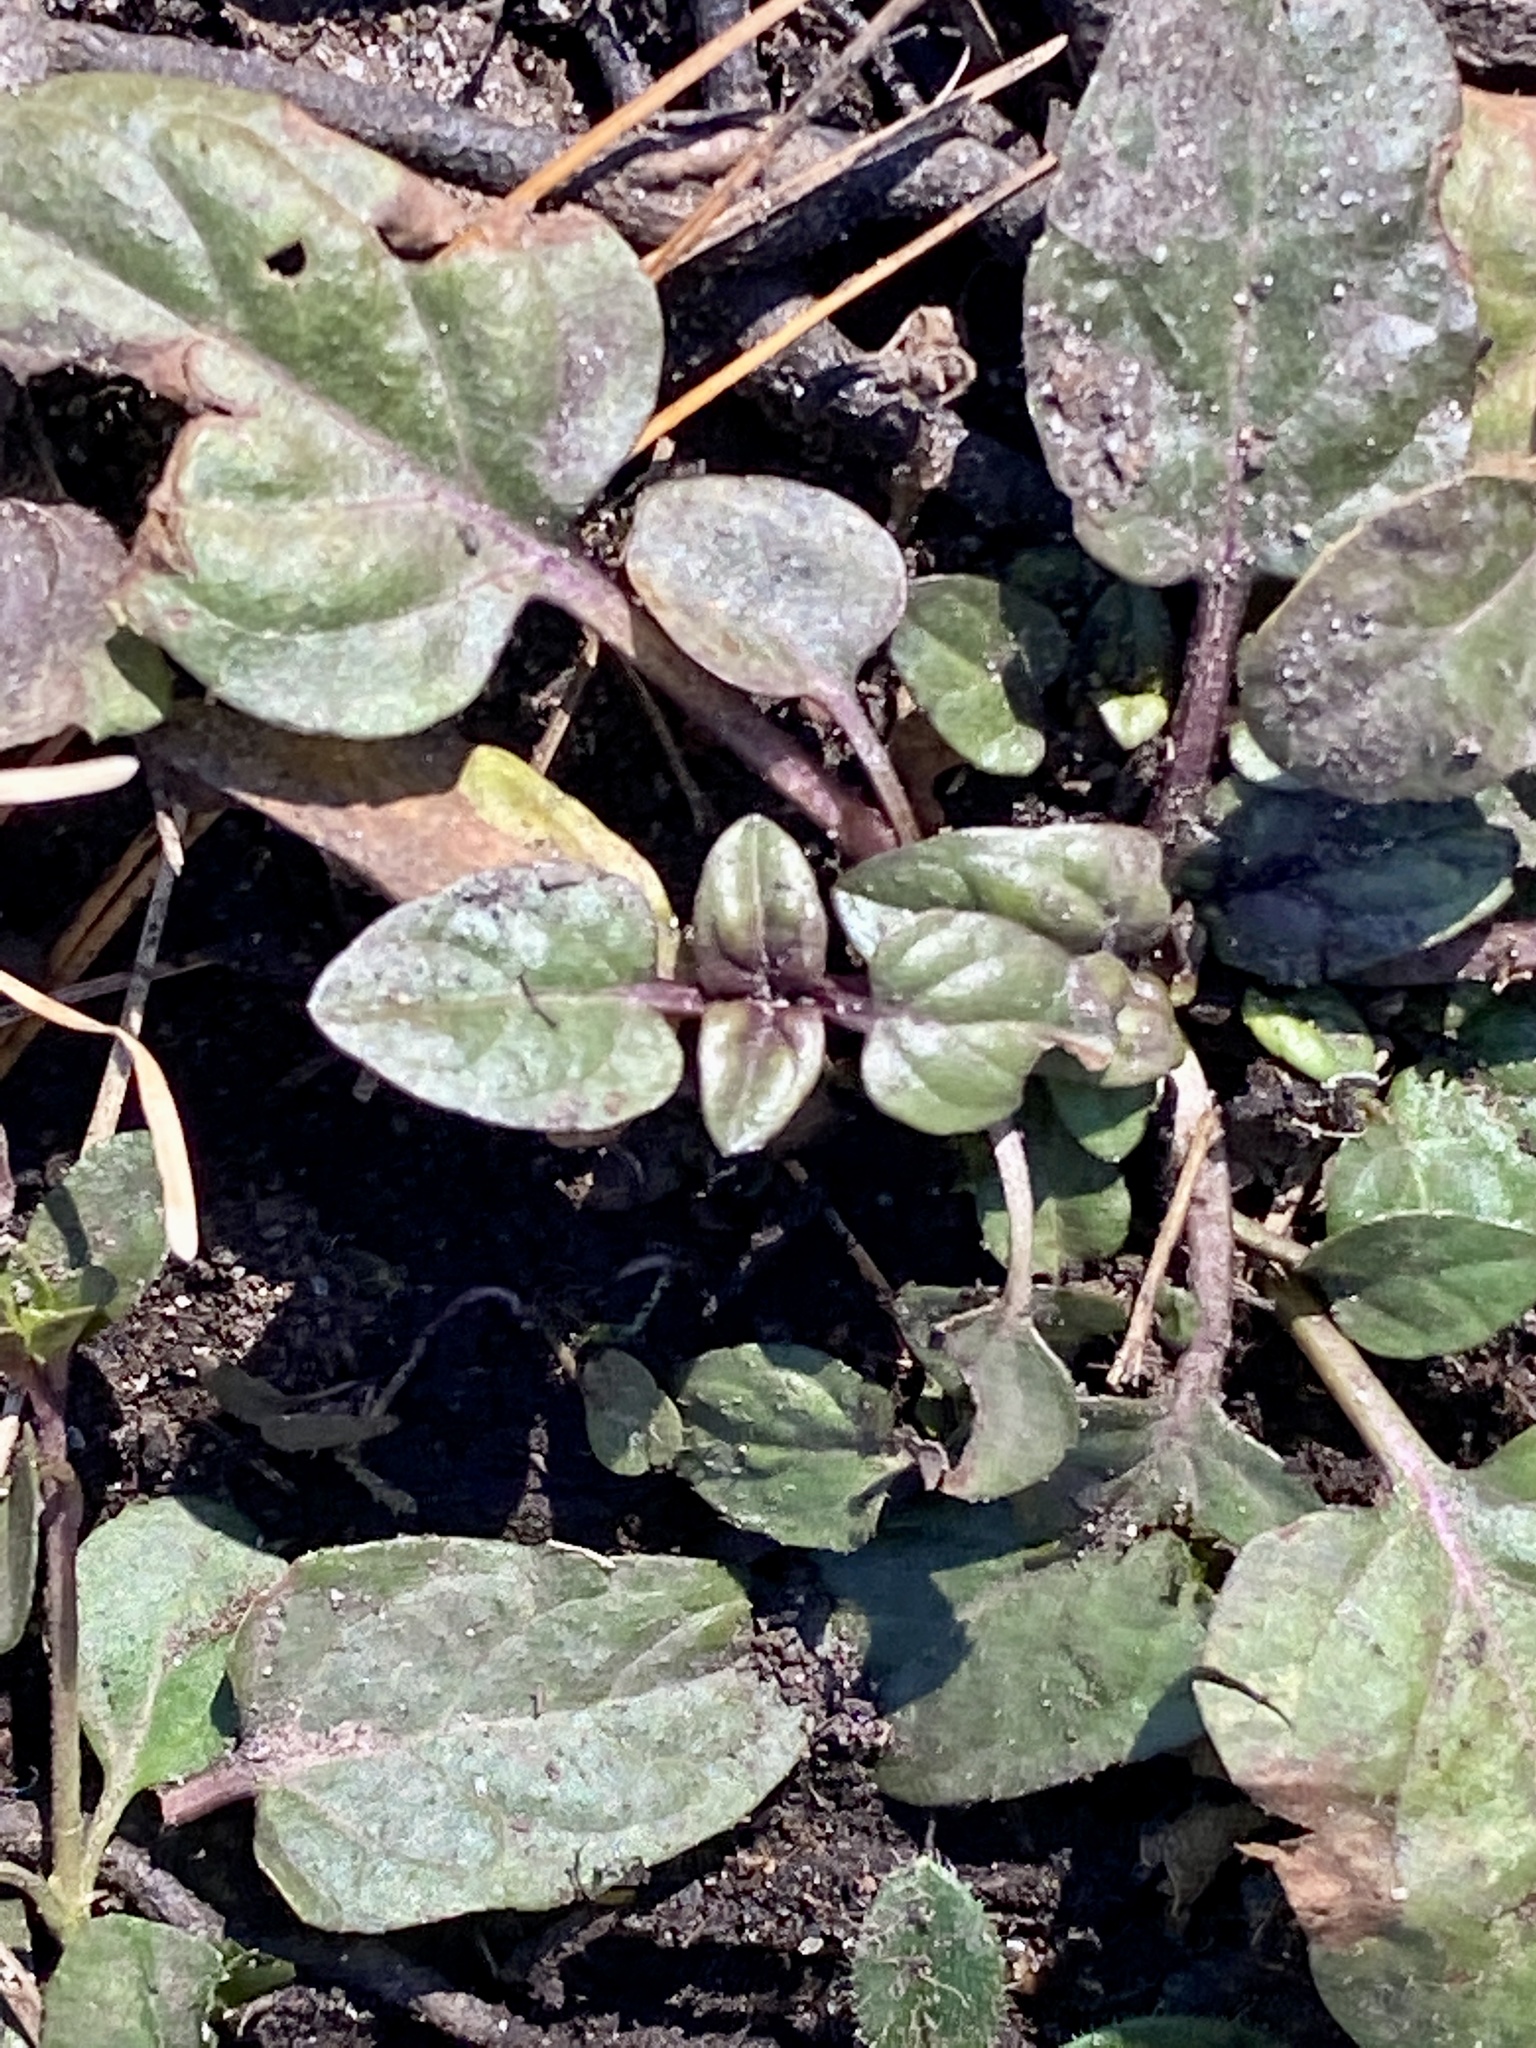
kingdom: Plantae
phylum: Tracheophyta
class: Magnoliopsida
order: Lamiales
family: Lamiaceae
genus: Prunella
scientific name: Prunella vulgaris
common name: Heal-all
